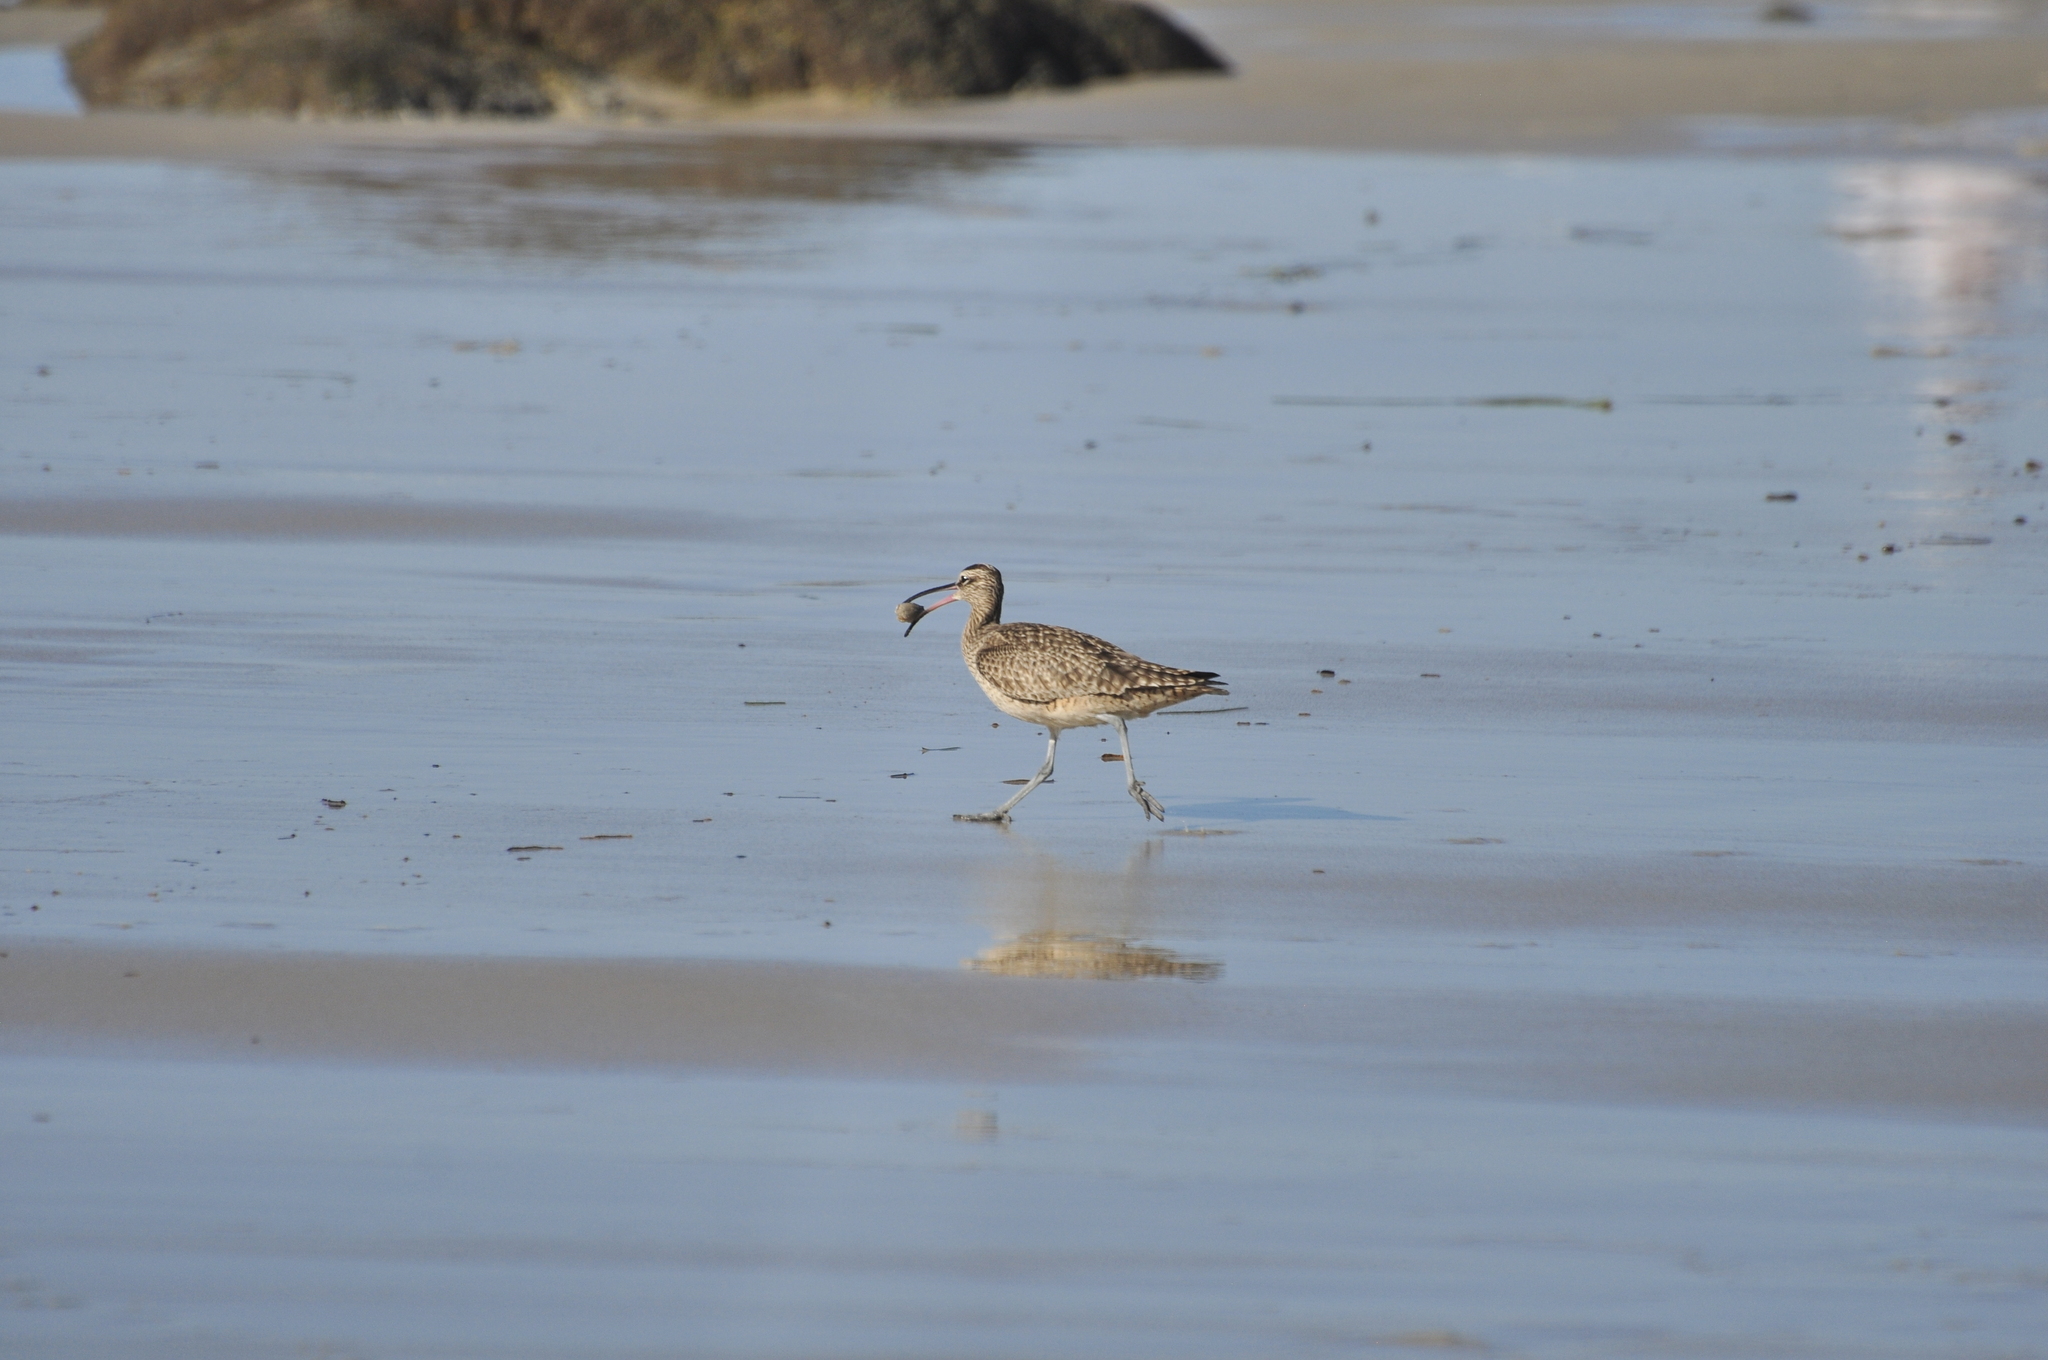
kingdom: Animalia
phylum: Chordata
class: Aves
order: Charadriiformes
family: Scolopacidae
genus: Numenius
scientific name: Numenius phaeopus
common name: Whimbrel
